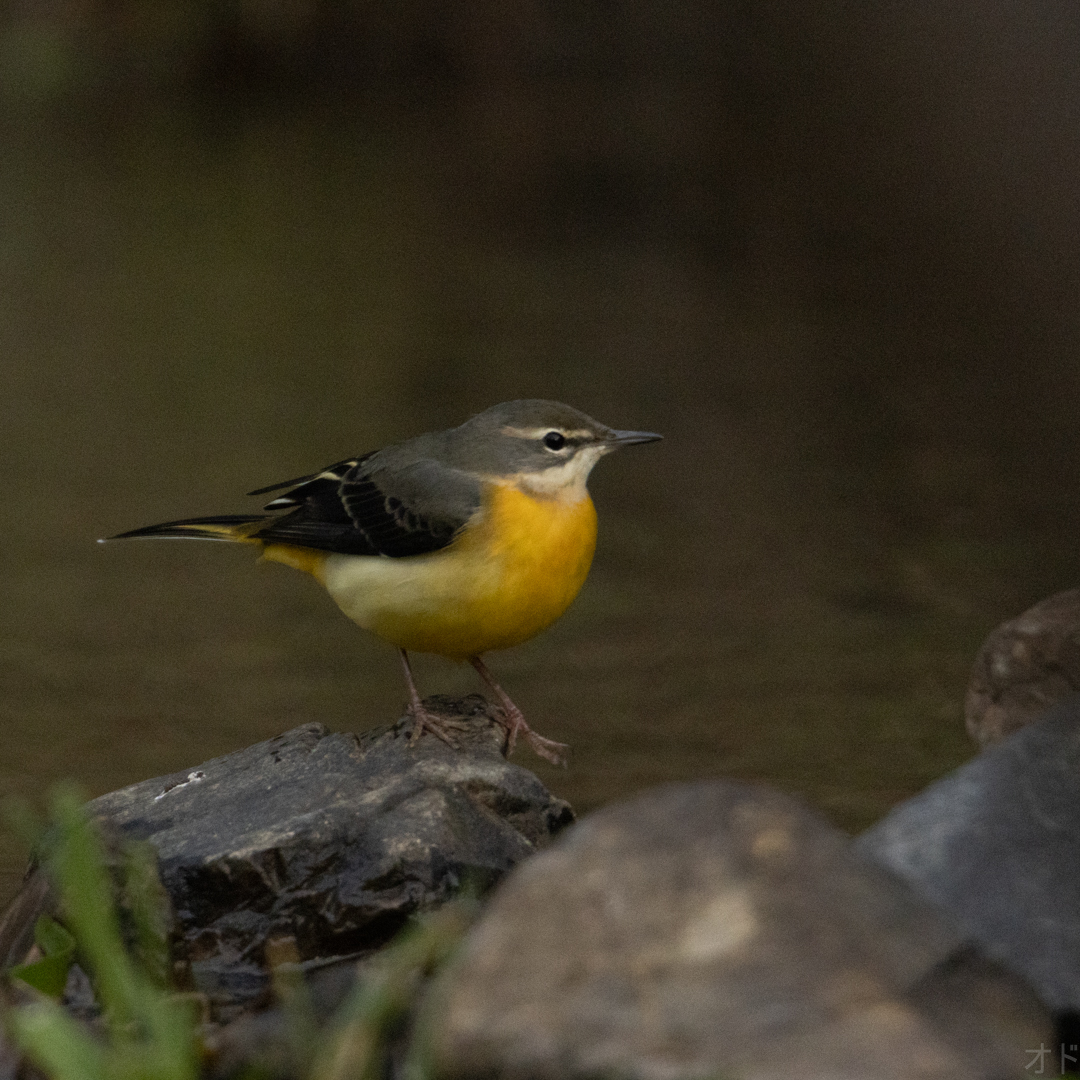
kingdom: Animalia
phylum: Chordata
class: Aves
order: Passeriformes
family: Motacillidae
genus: Motacilla
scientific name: Motacilla cinerea
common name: Grey wagtail
